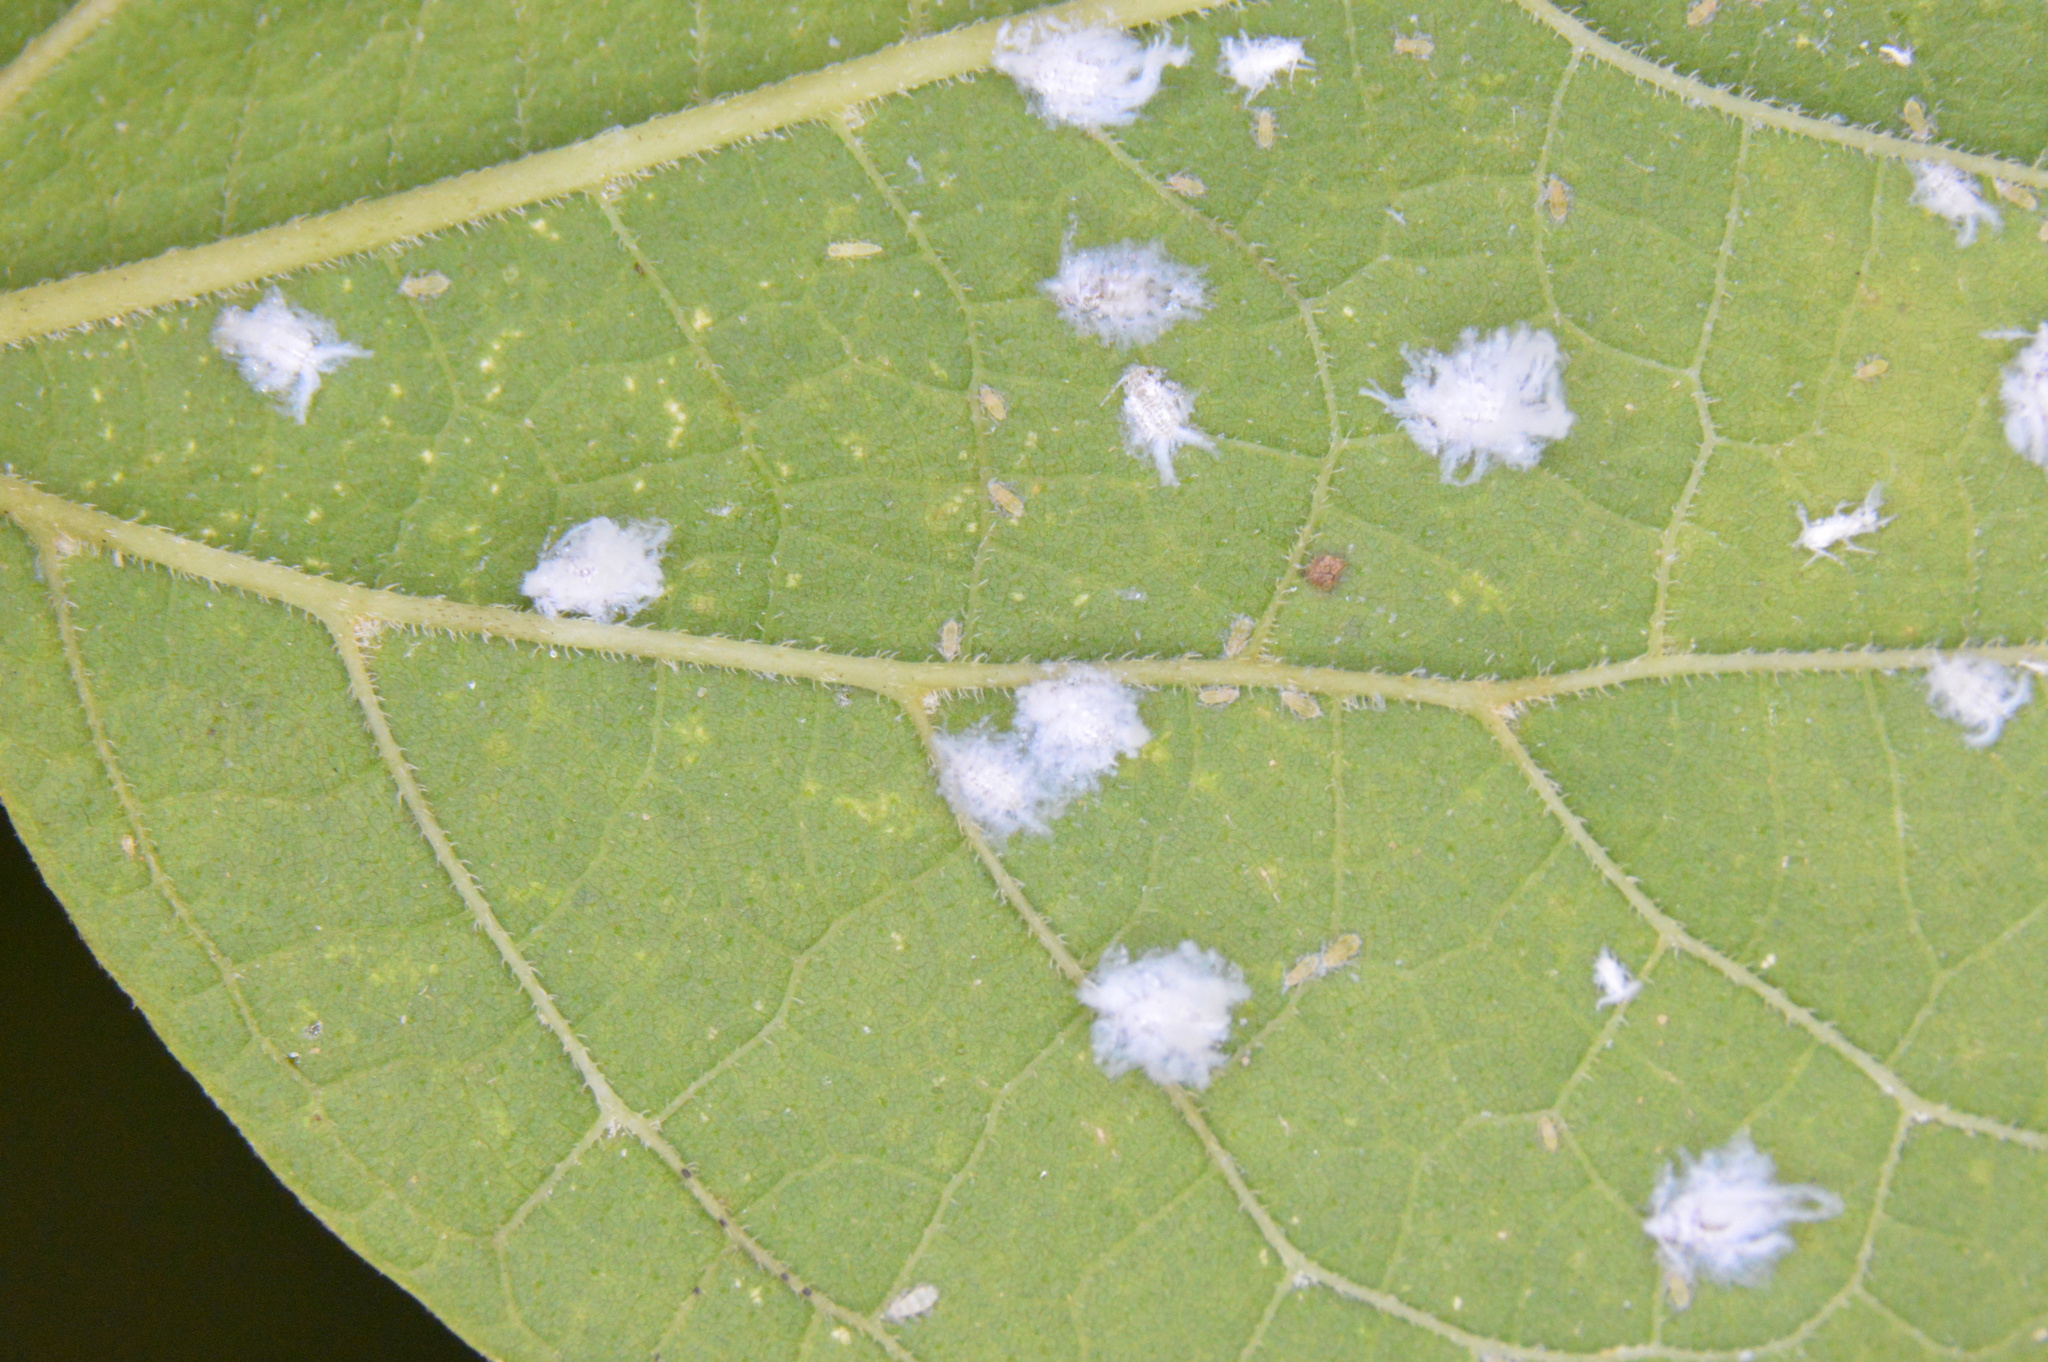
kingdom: Animalia
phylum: Arthropoda
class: Insecta
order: Hemiptera
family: Aphididae
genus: Shivaphis
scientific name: Shivaphis celti
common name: Asian wooly hackberry aphid
